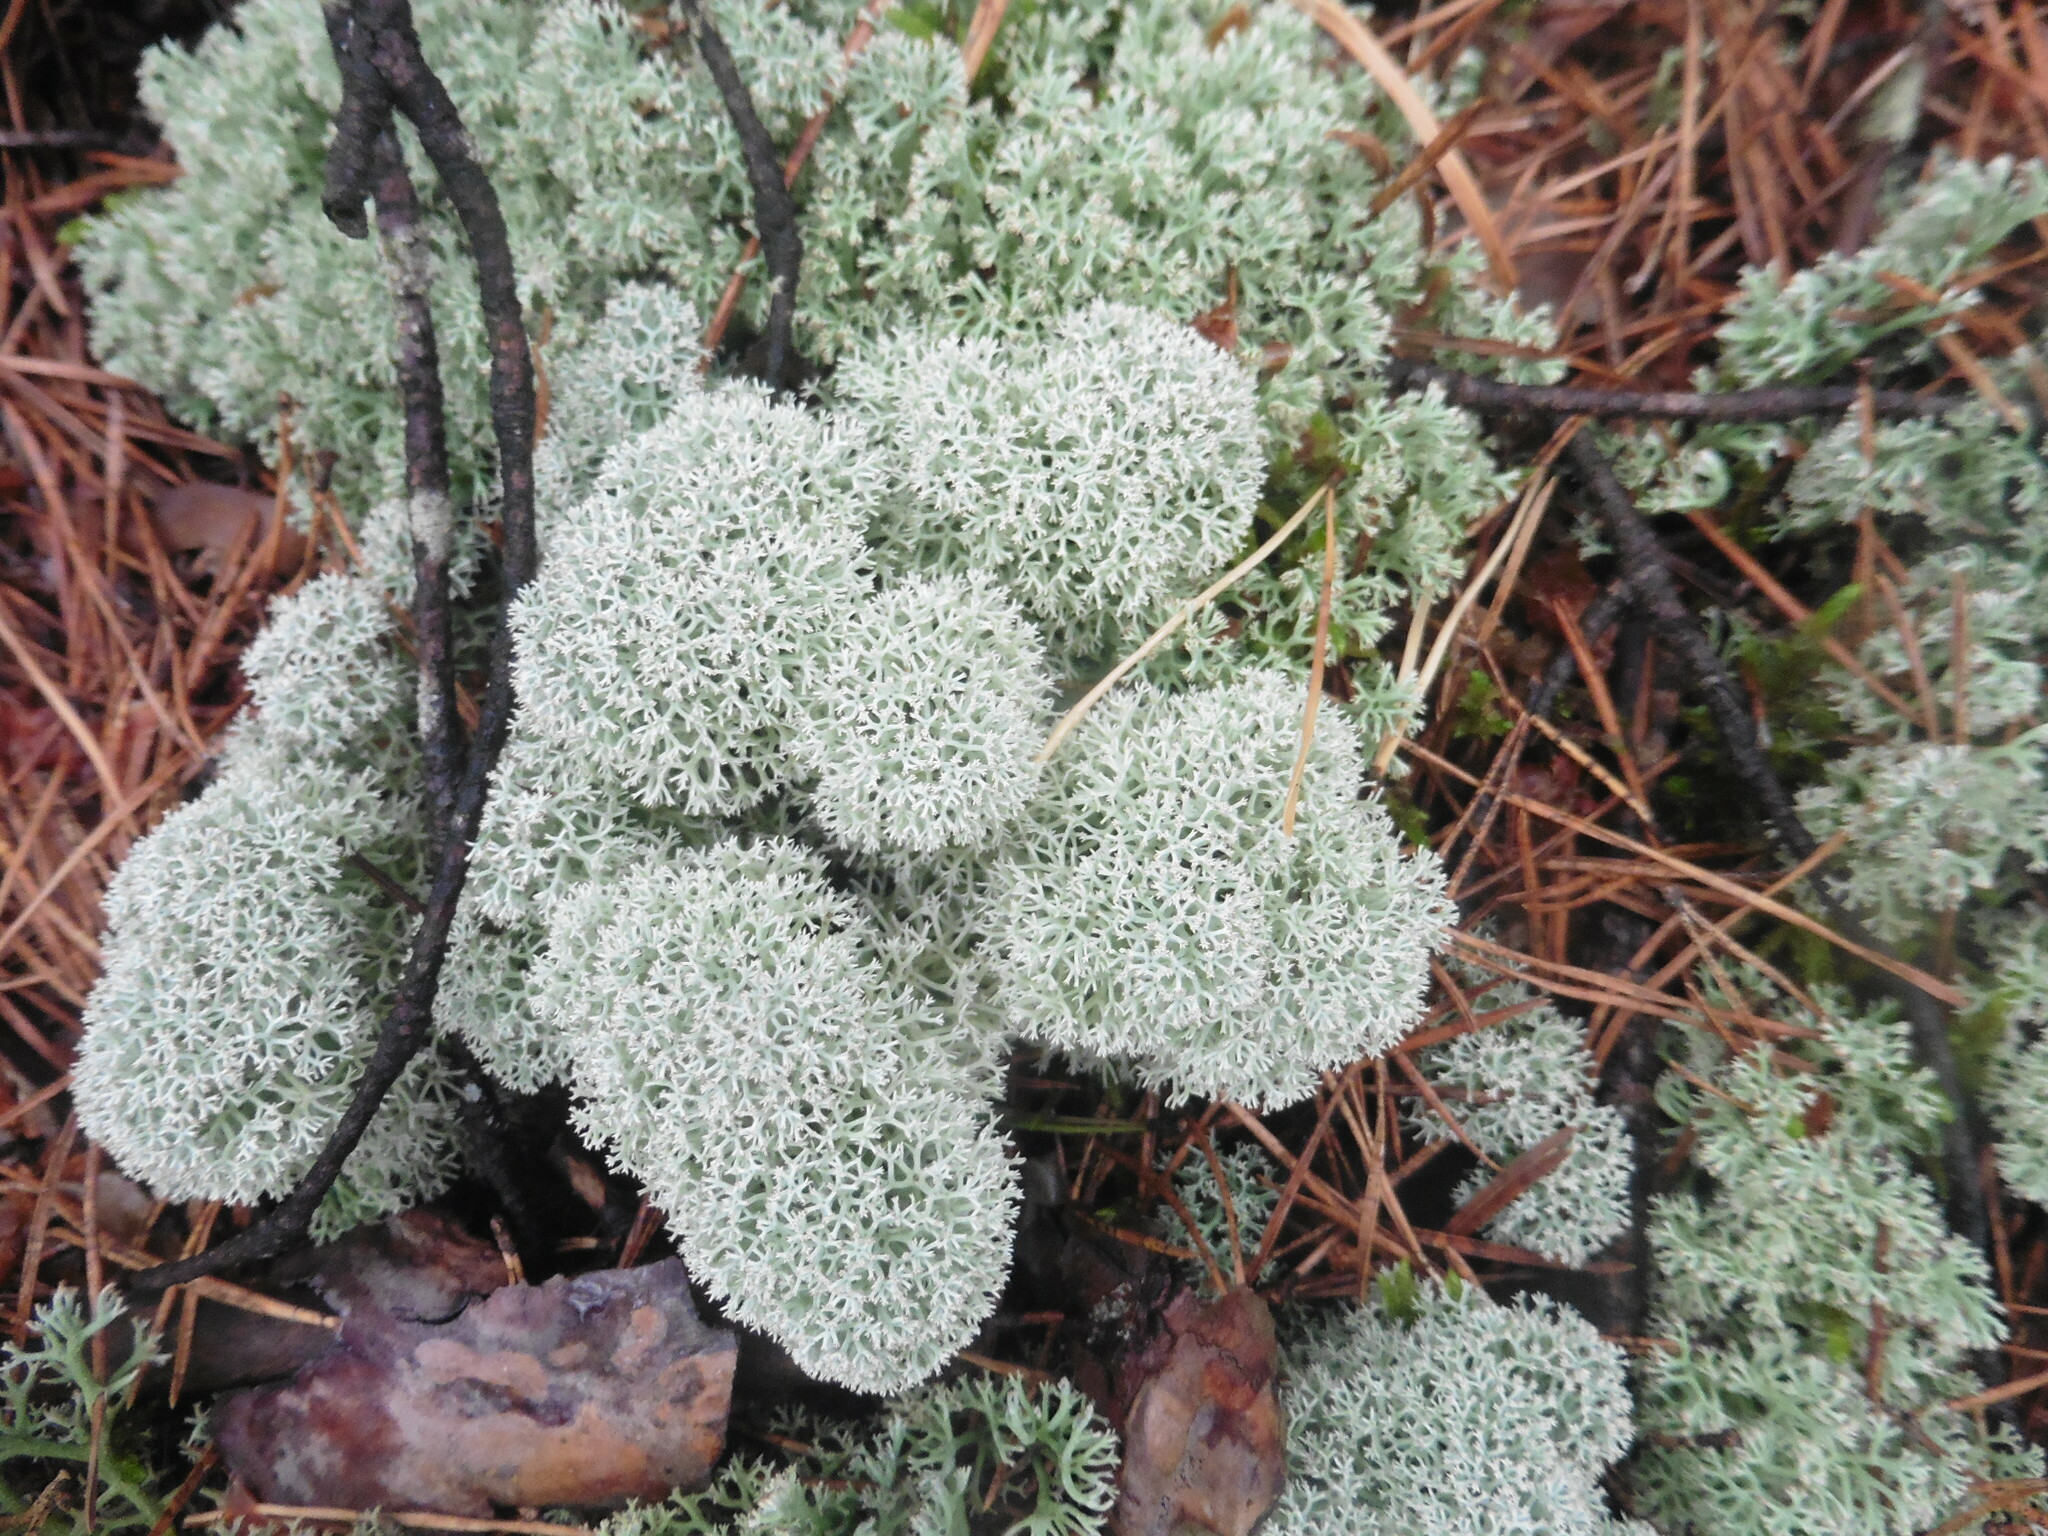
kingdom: Fungi
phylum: Ascomycota
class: Lecanoromycetes
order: Lecanorales
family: Cladoniaceae
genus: Cladonia
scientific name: Cladonia stellaris
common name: Star-tipped reindeer lichen
